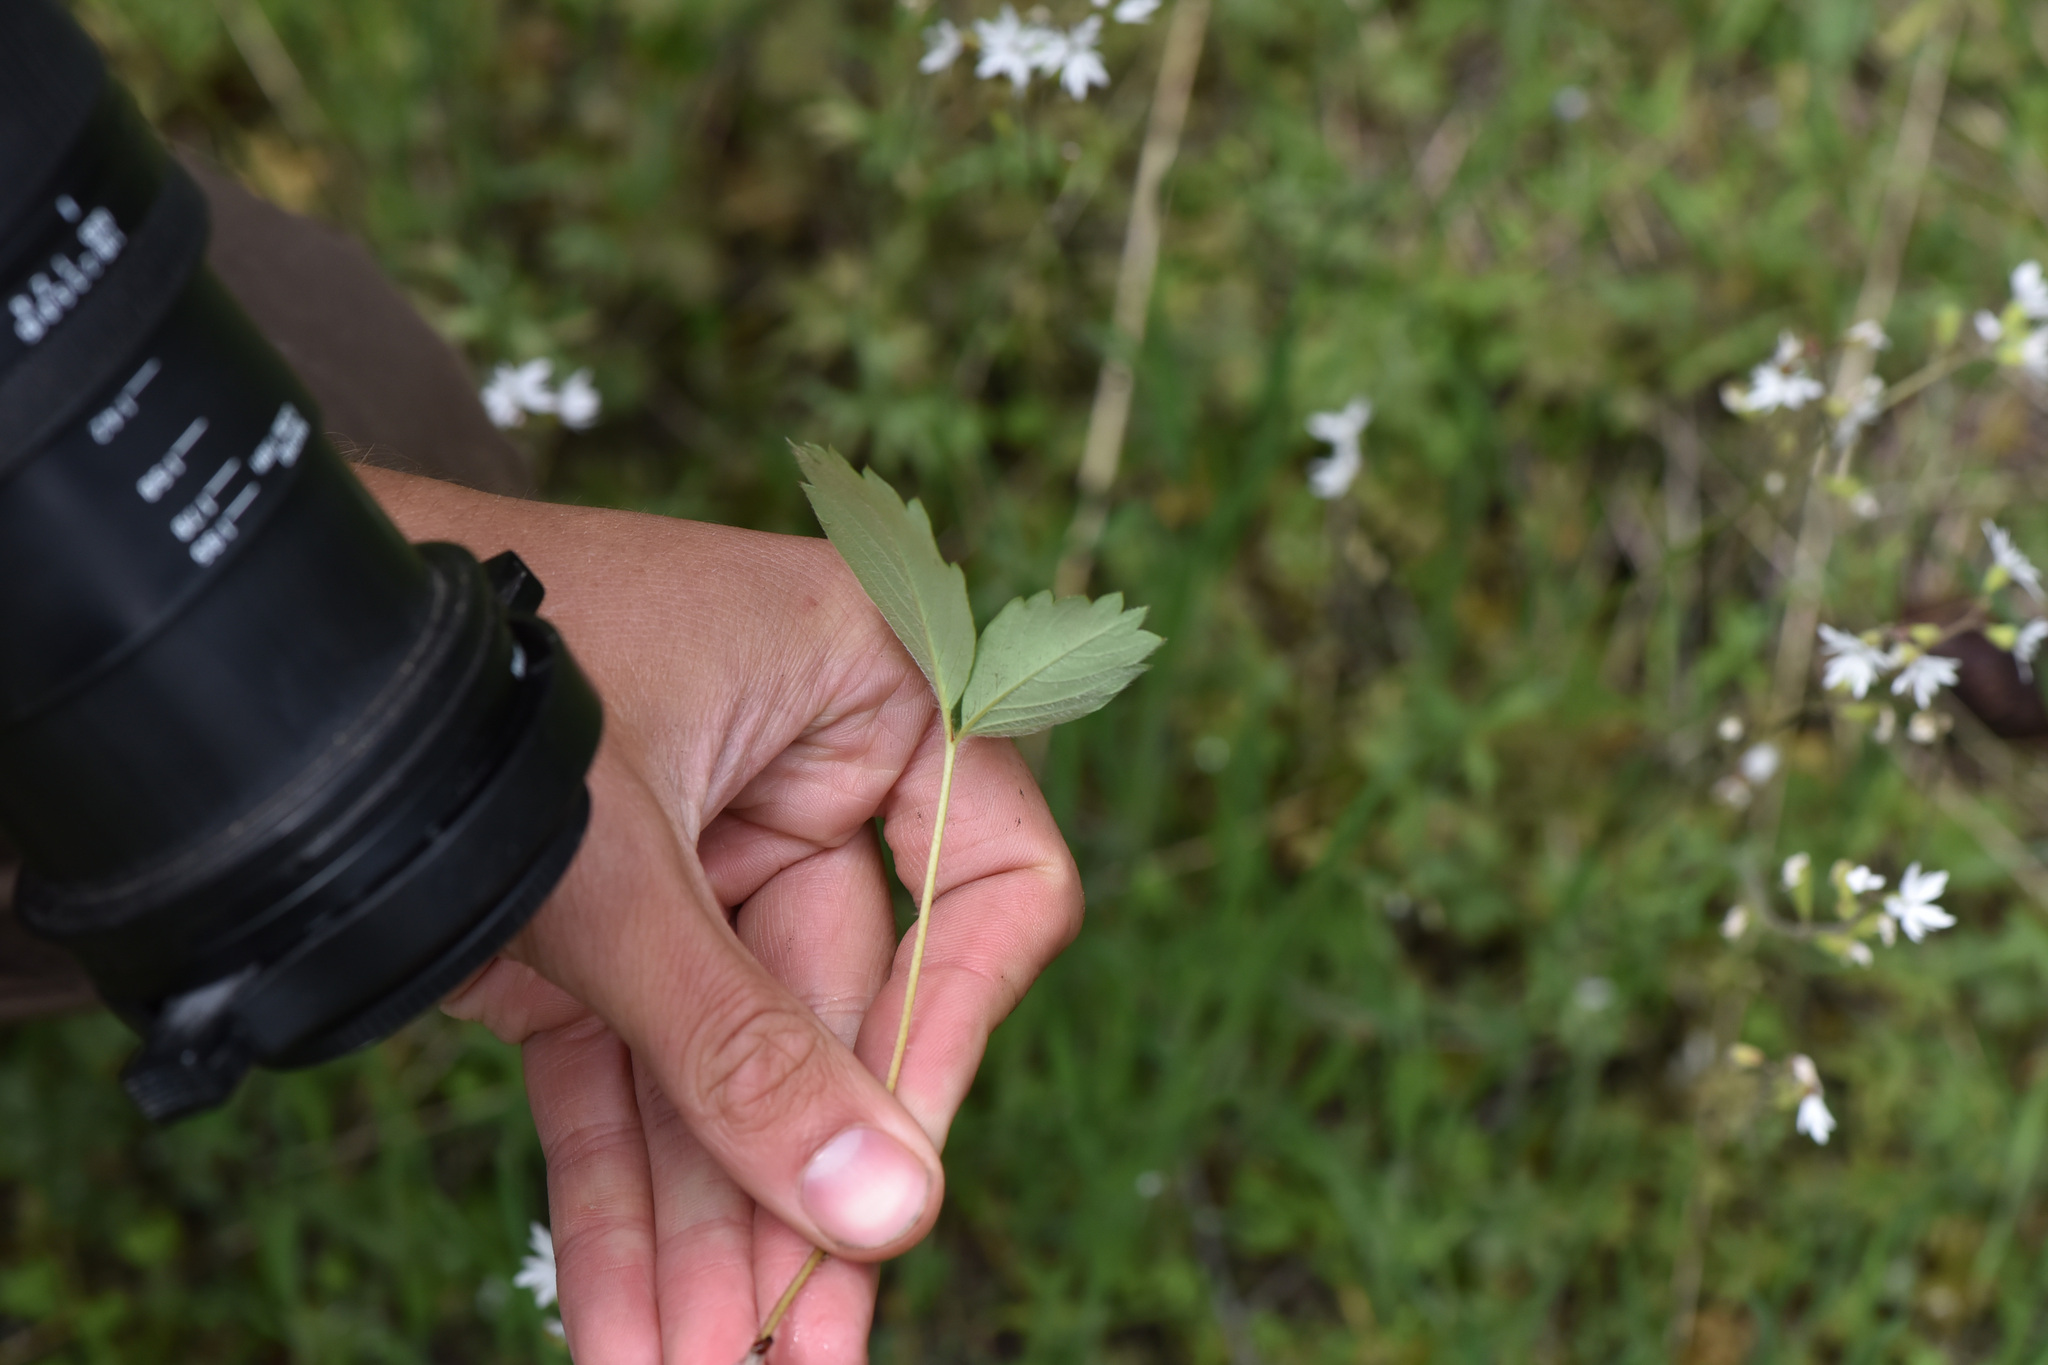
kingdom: Plantae
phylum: Tracheophyta
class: Magnoliopsida
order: Rosales
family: Rosaceae
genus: Fragaria
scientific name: Fragaria virginiana
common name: Thickleaved wild strawberry
